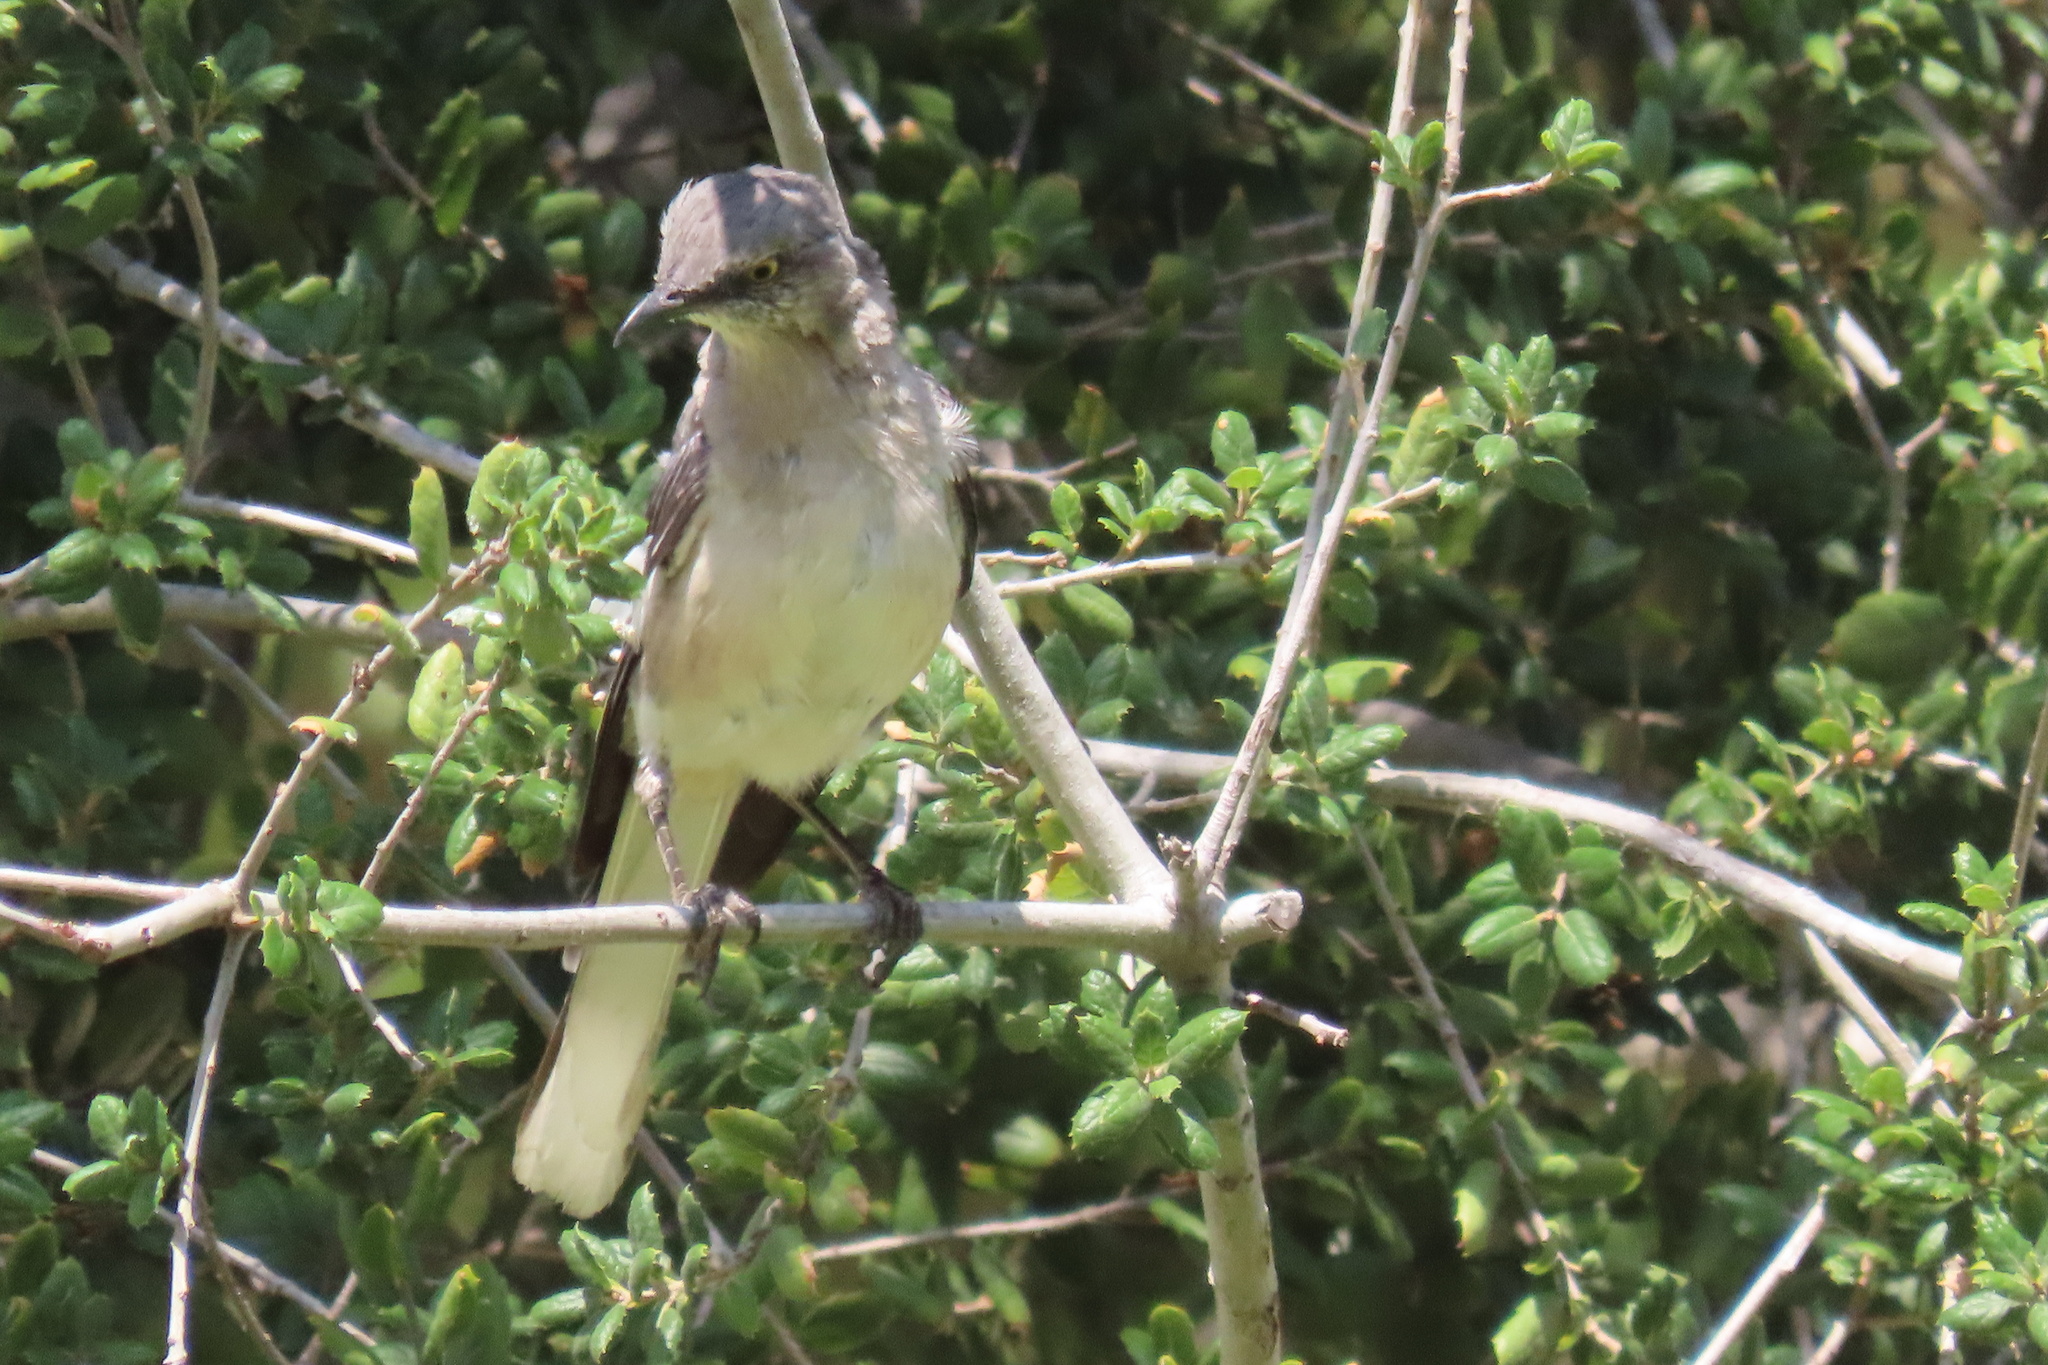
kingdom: Animalia
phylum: Chordata
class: Aves
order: Passeriformes
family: Mimidae
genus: Mimus
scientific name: Mimus polyglottos
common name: Northern mockingbird
